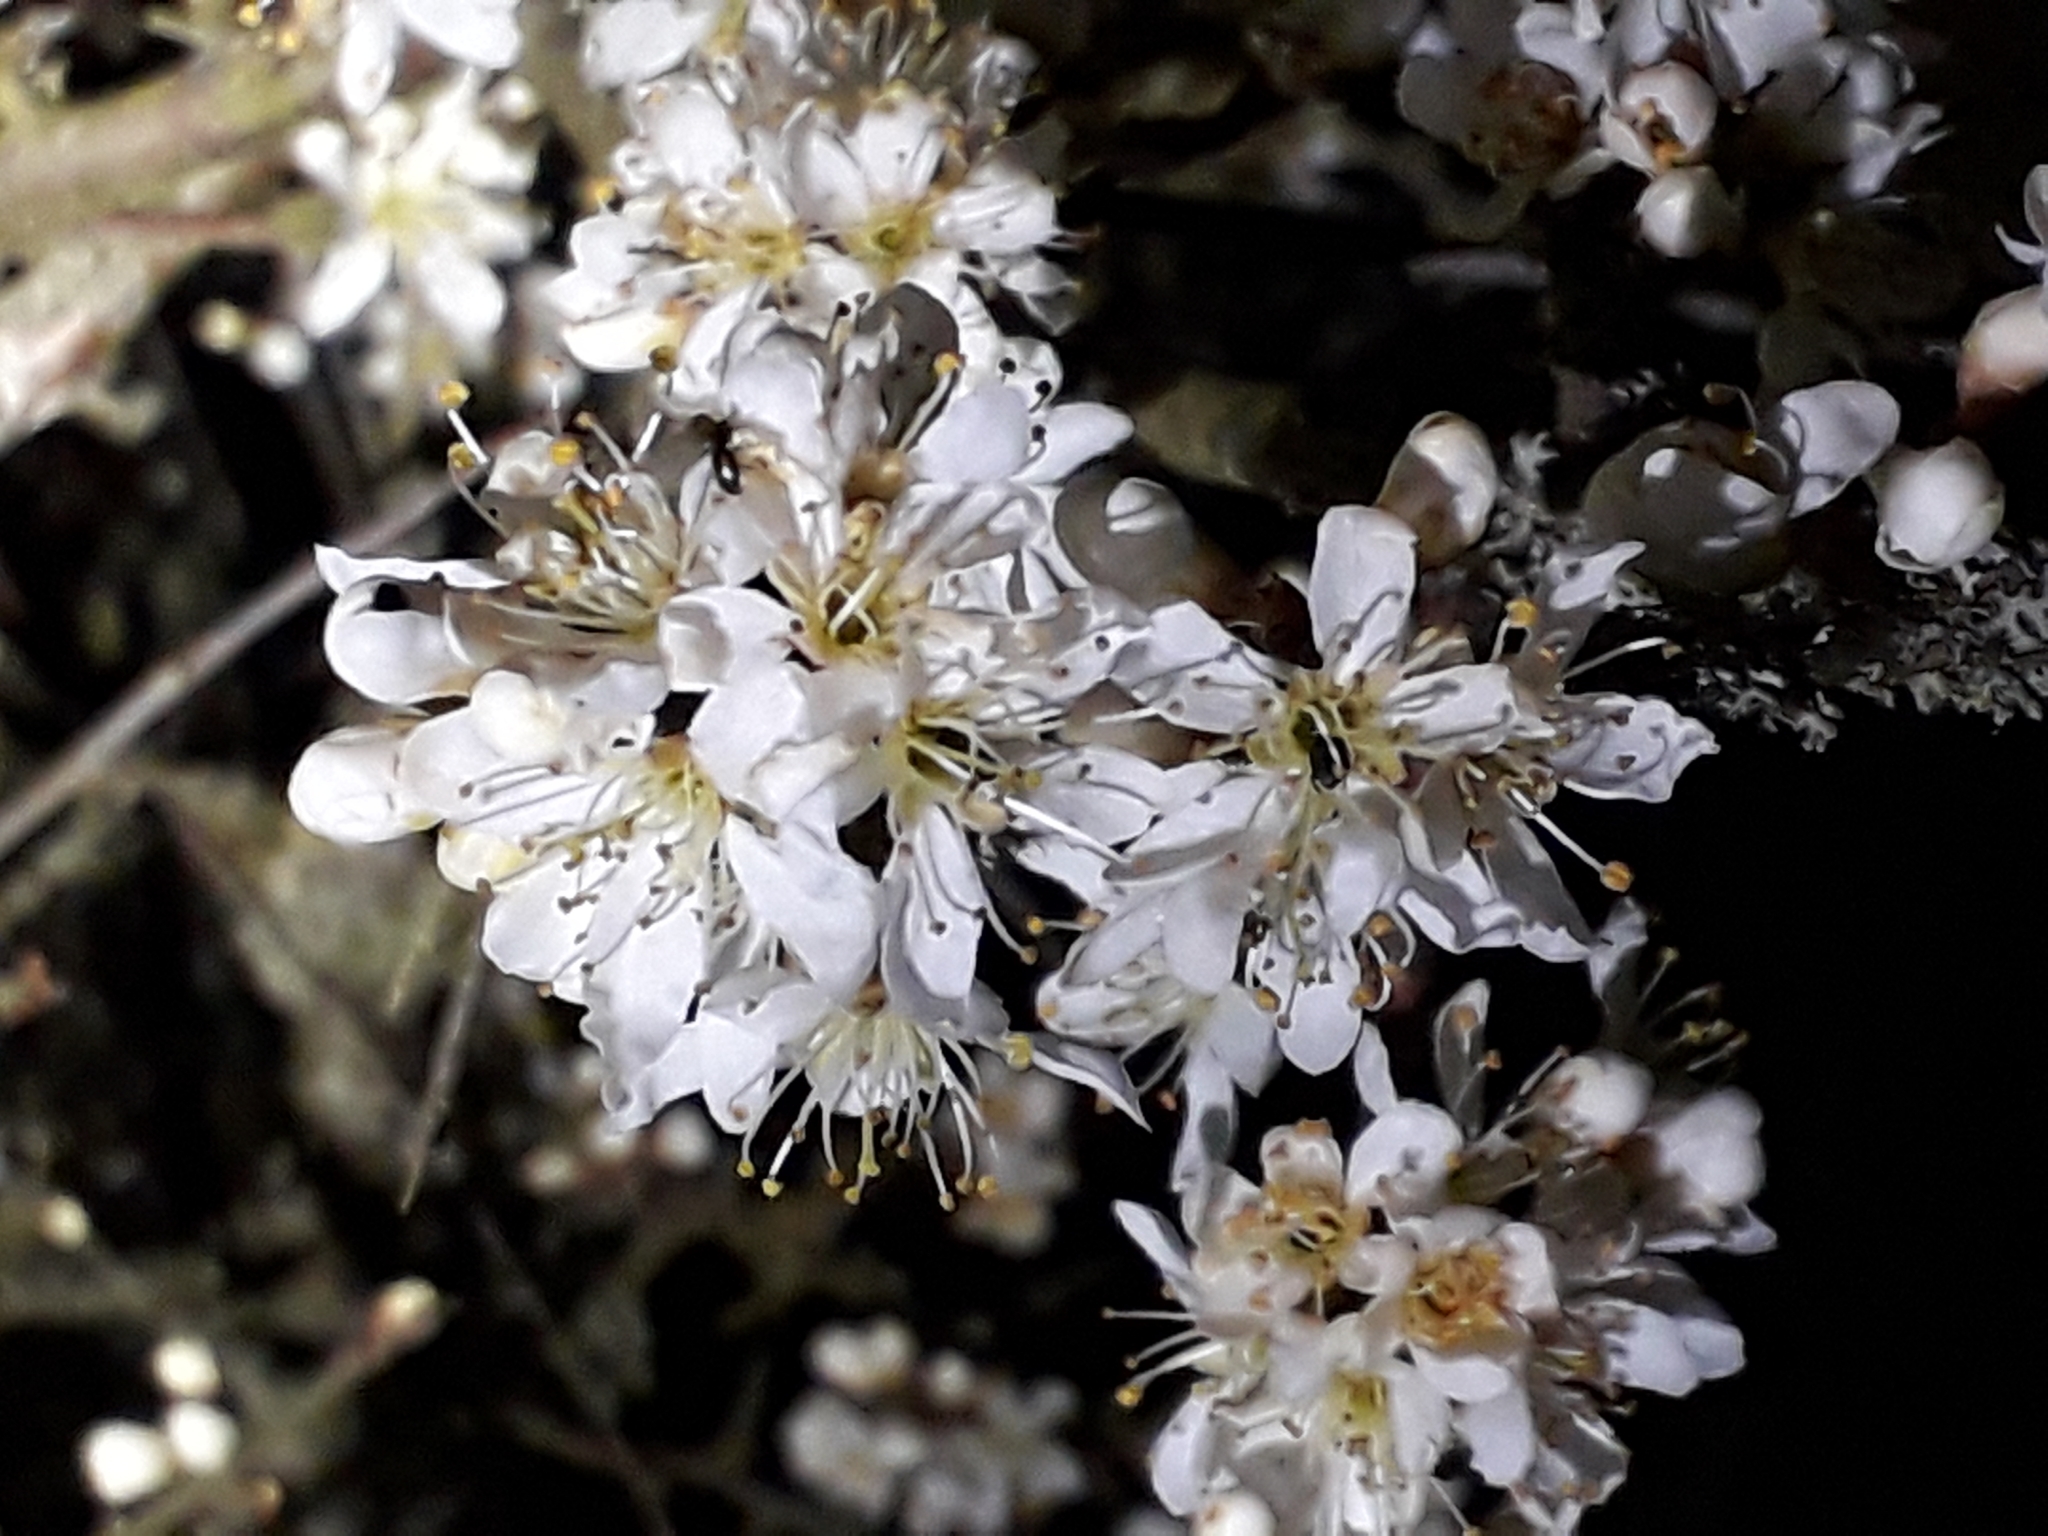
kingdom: Plantae
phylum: Tracheophyta
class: Magnoliopsida
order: Rosales
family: Rosaceae
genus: Prunus
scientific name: Prunus spinosa
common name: Blackthorn
